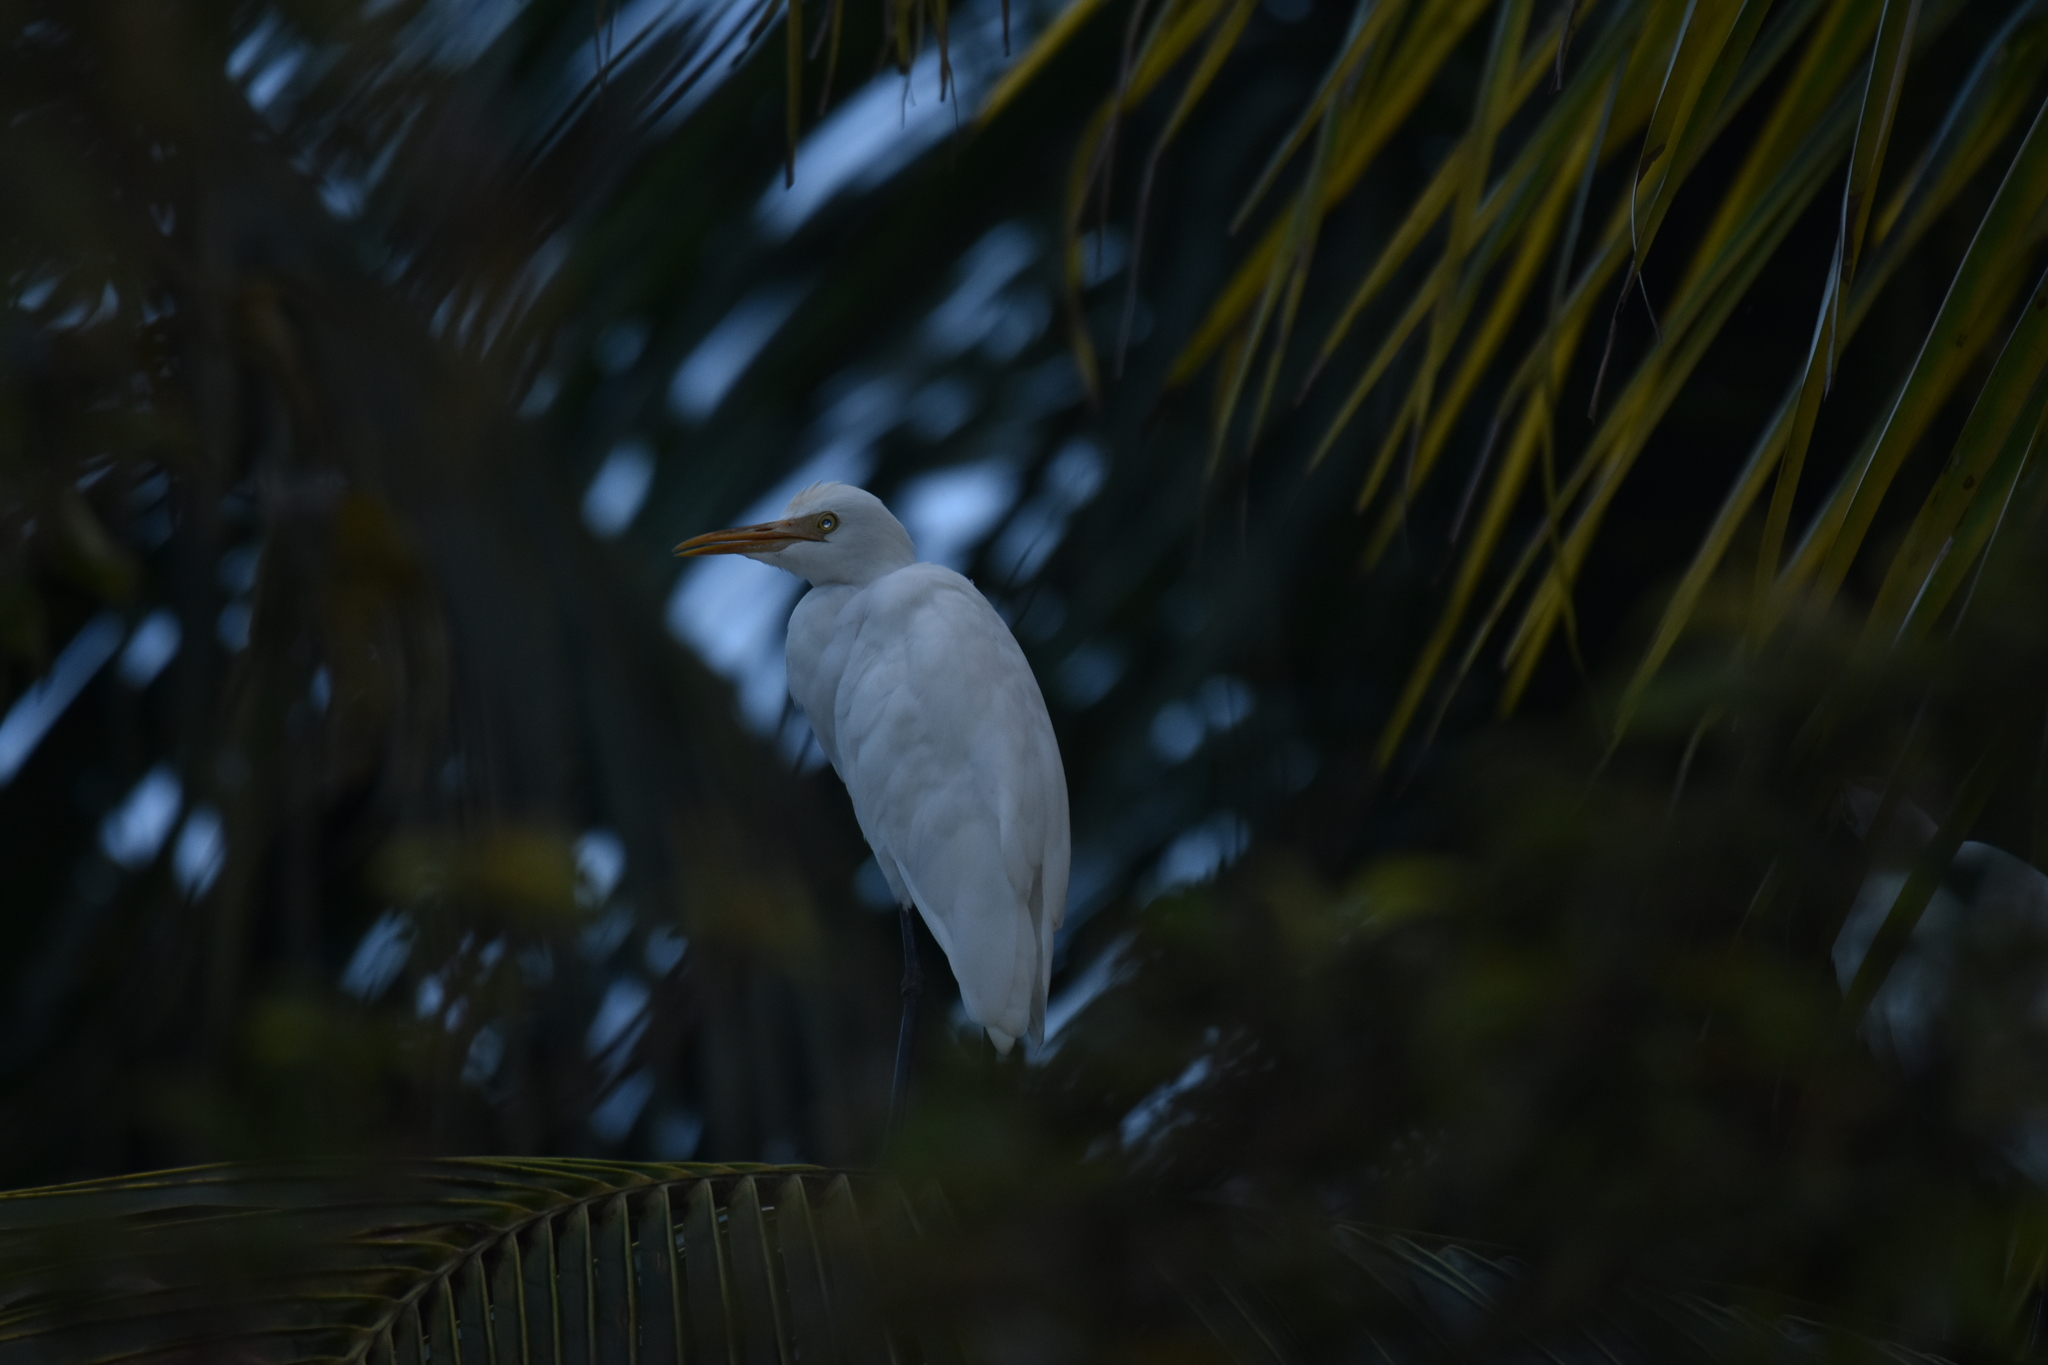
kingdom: Animalia
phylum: Chordata
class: Aves
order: Pelecaniformes
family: Ardeidae
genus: Bubulcus
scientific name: Bubulcus coromandus
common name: Eastern cattle egret
